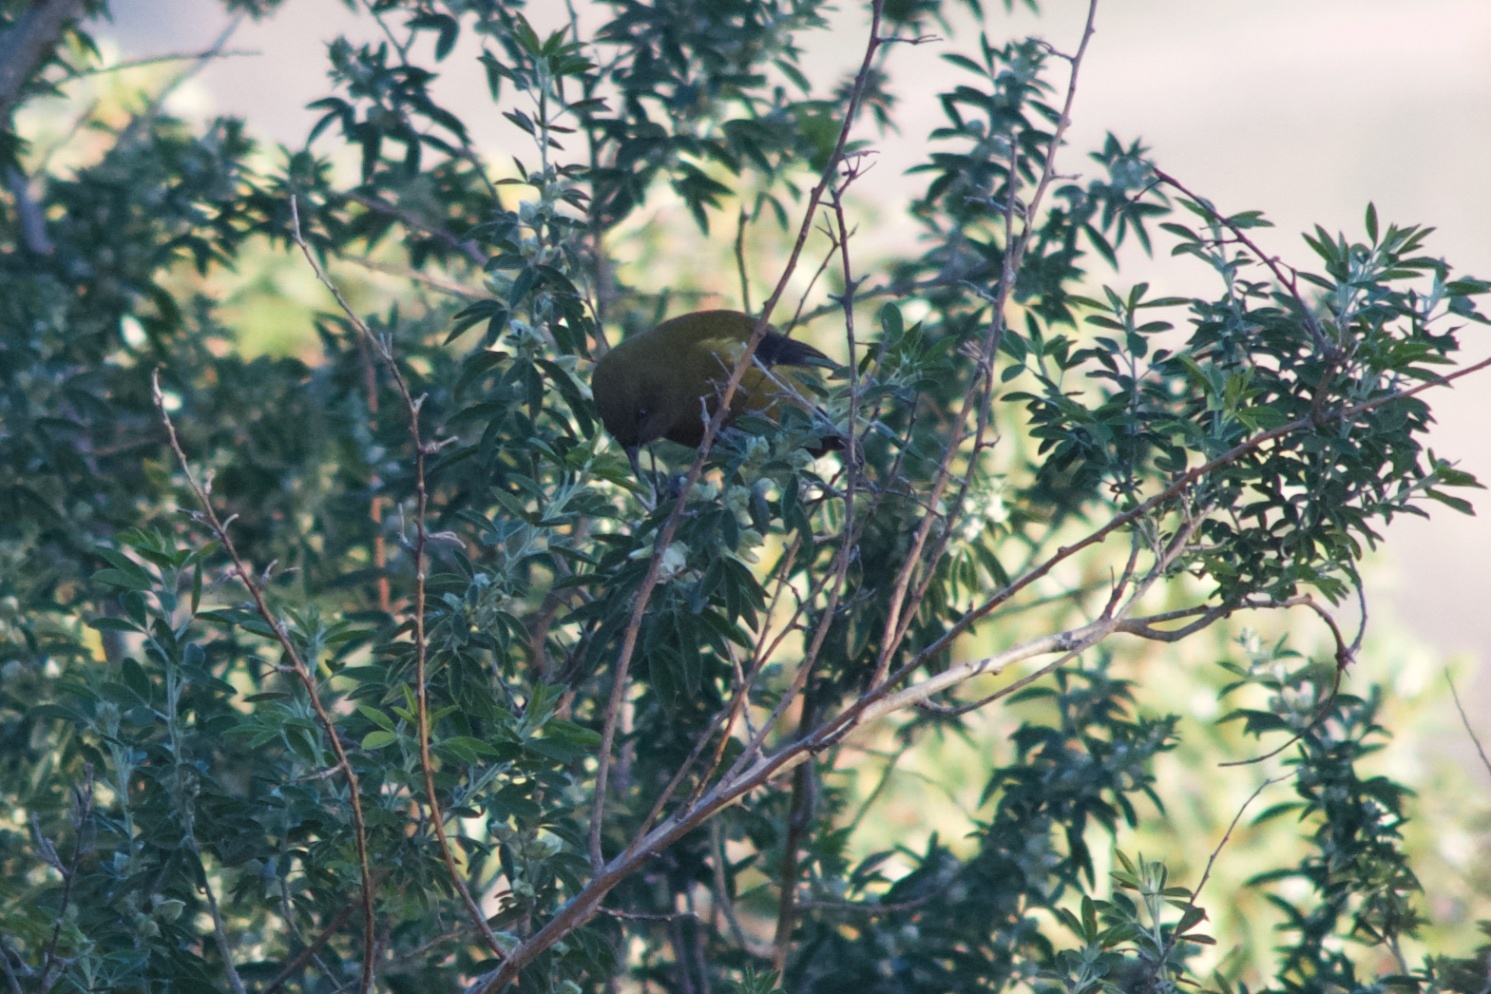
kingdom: Animalia
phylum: Chordata
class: Aves
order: Passeriformes
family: Meliphagidae
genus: Anthornis
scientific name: Anthornis melanura
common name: New zealand bellbird
